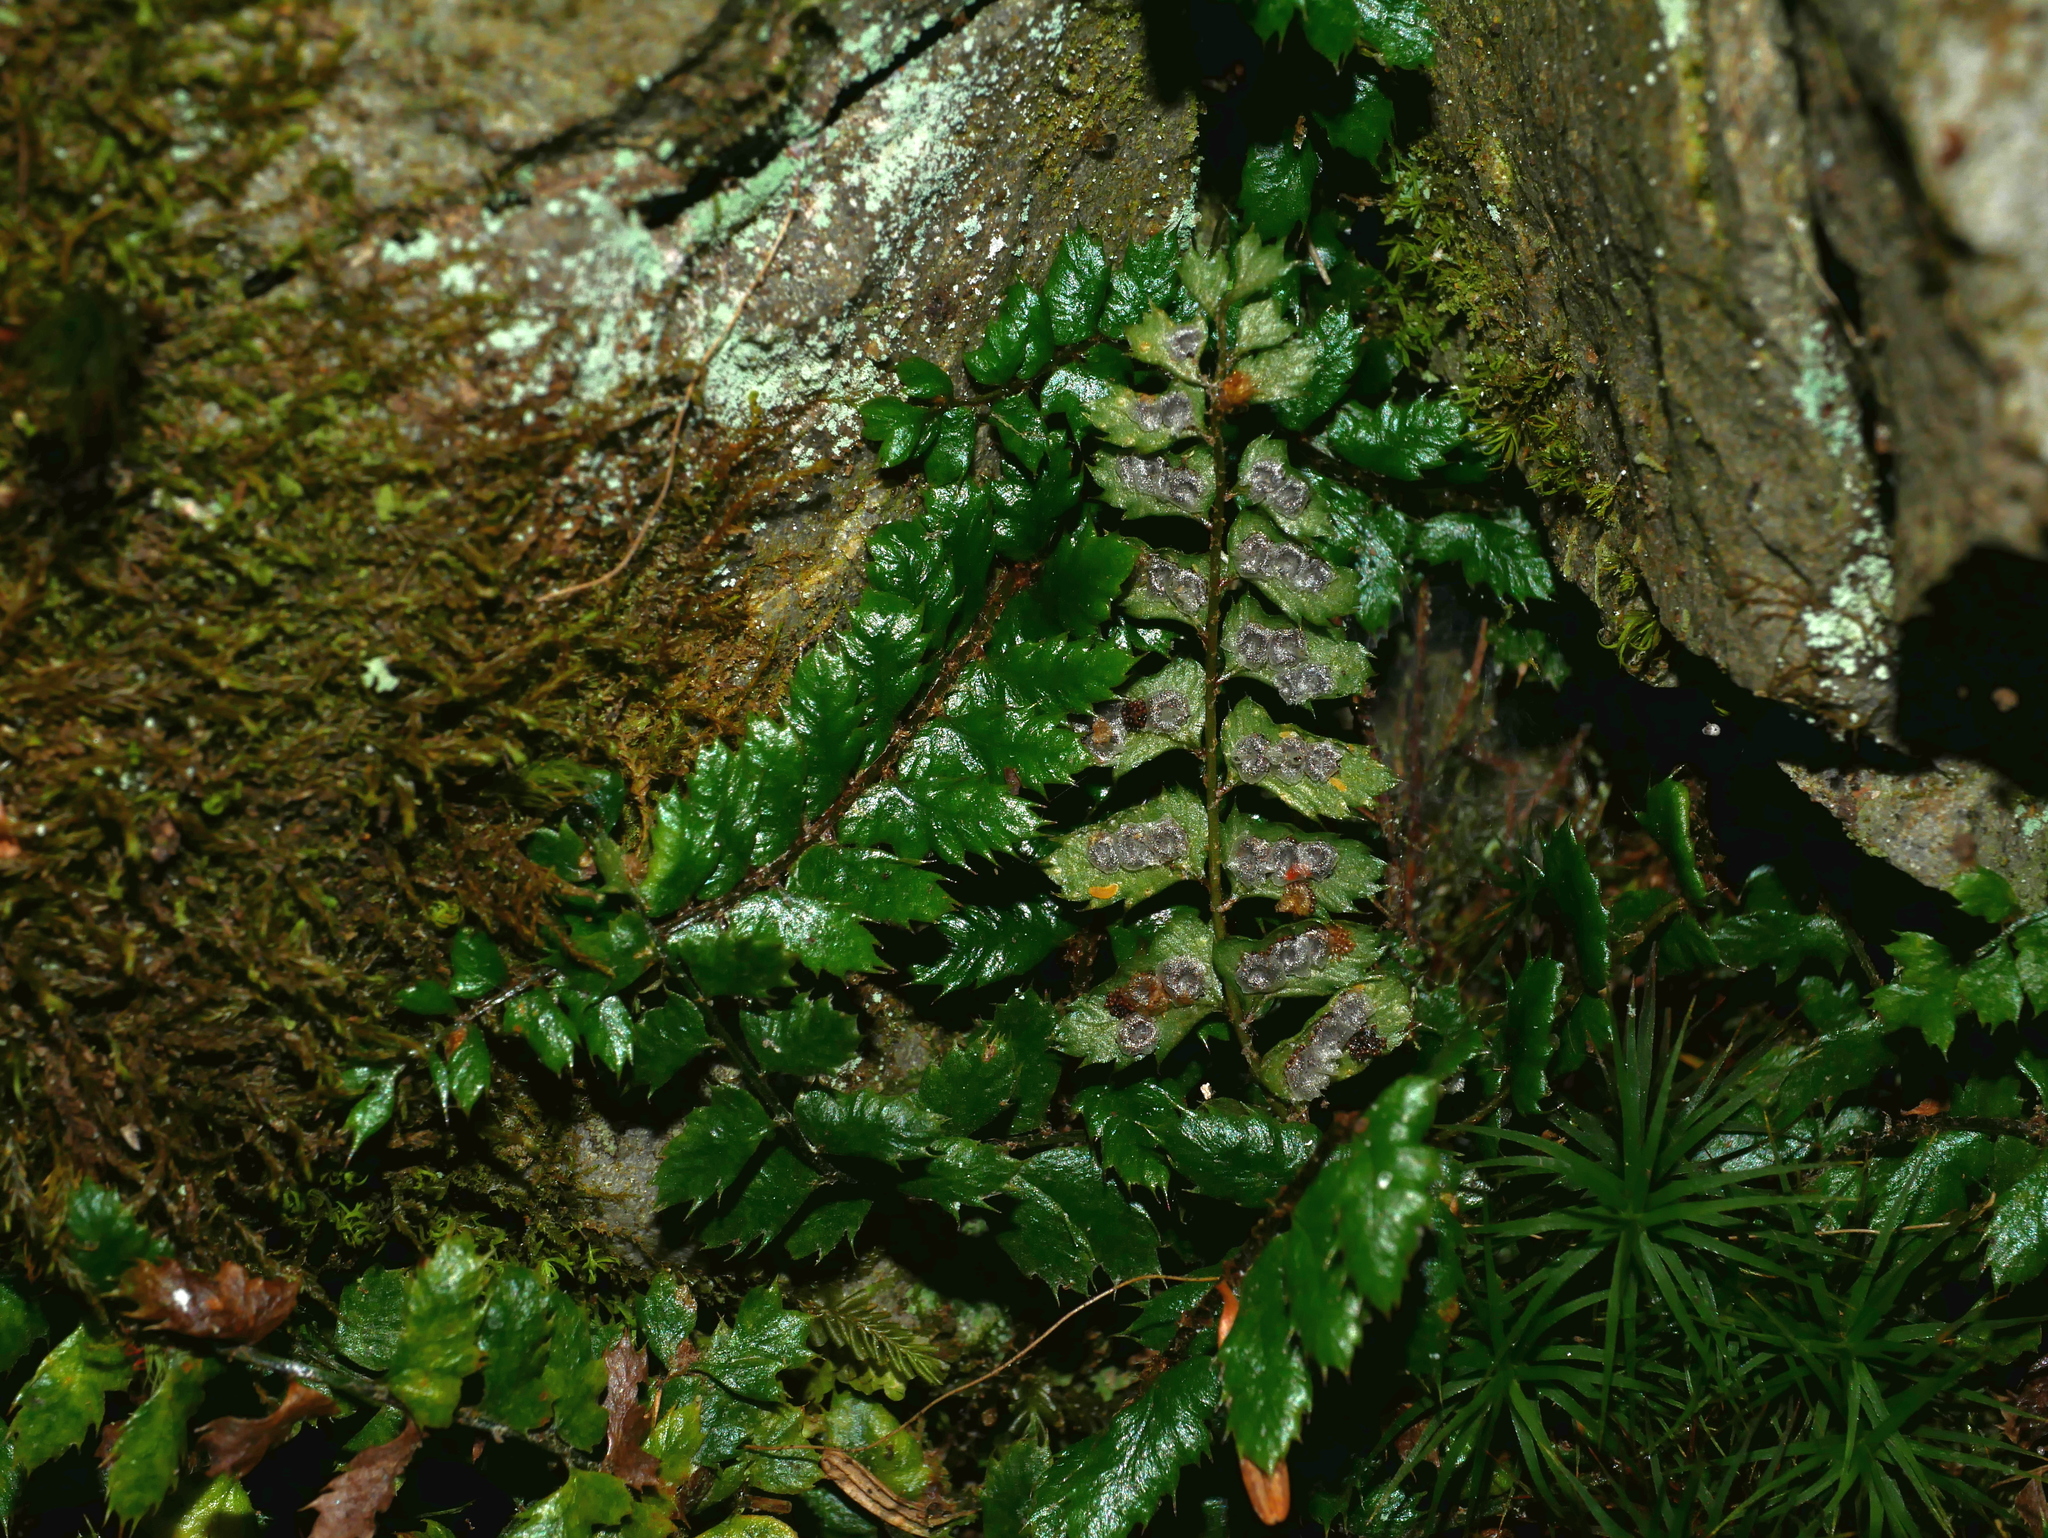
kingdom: Plantae
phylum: Tracheophyta
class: Polypodiopsida
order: Polypodiales
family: Dryopteridaceae
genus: Polystichum
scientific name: Polystichum atkinsonii
